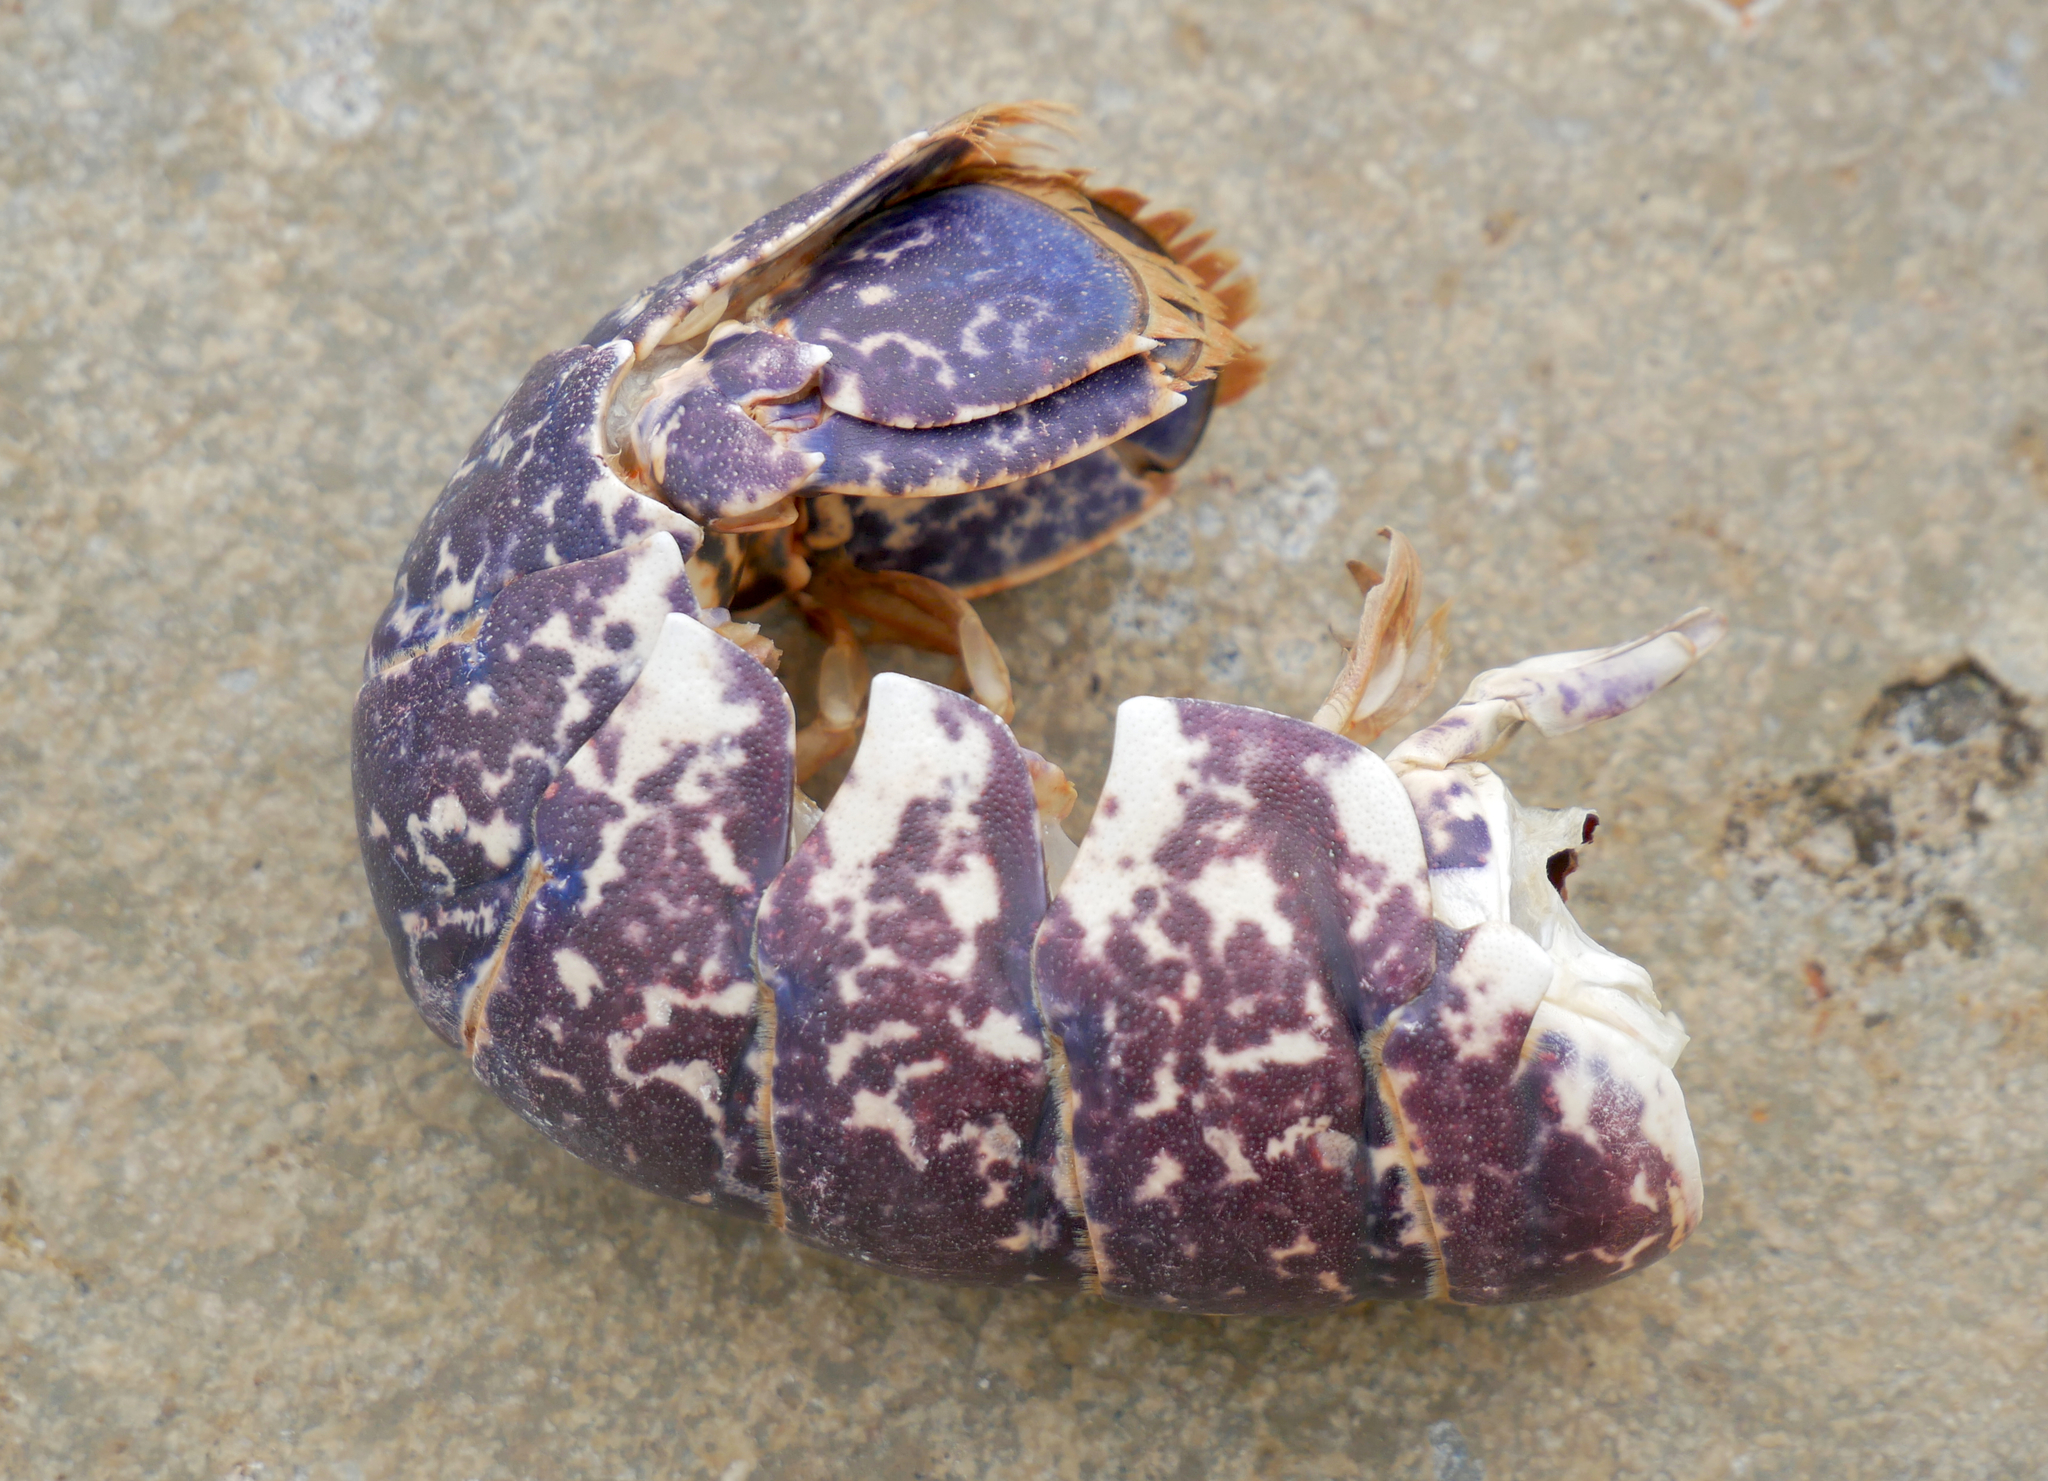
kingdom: Animalia
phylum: Arthropoda
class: Malacostraca
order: Decapoda
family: Nephropidae
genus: Homarus
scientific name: Homarus gammarus
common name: European lobster
